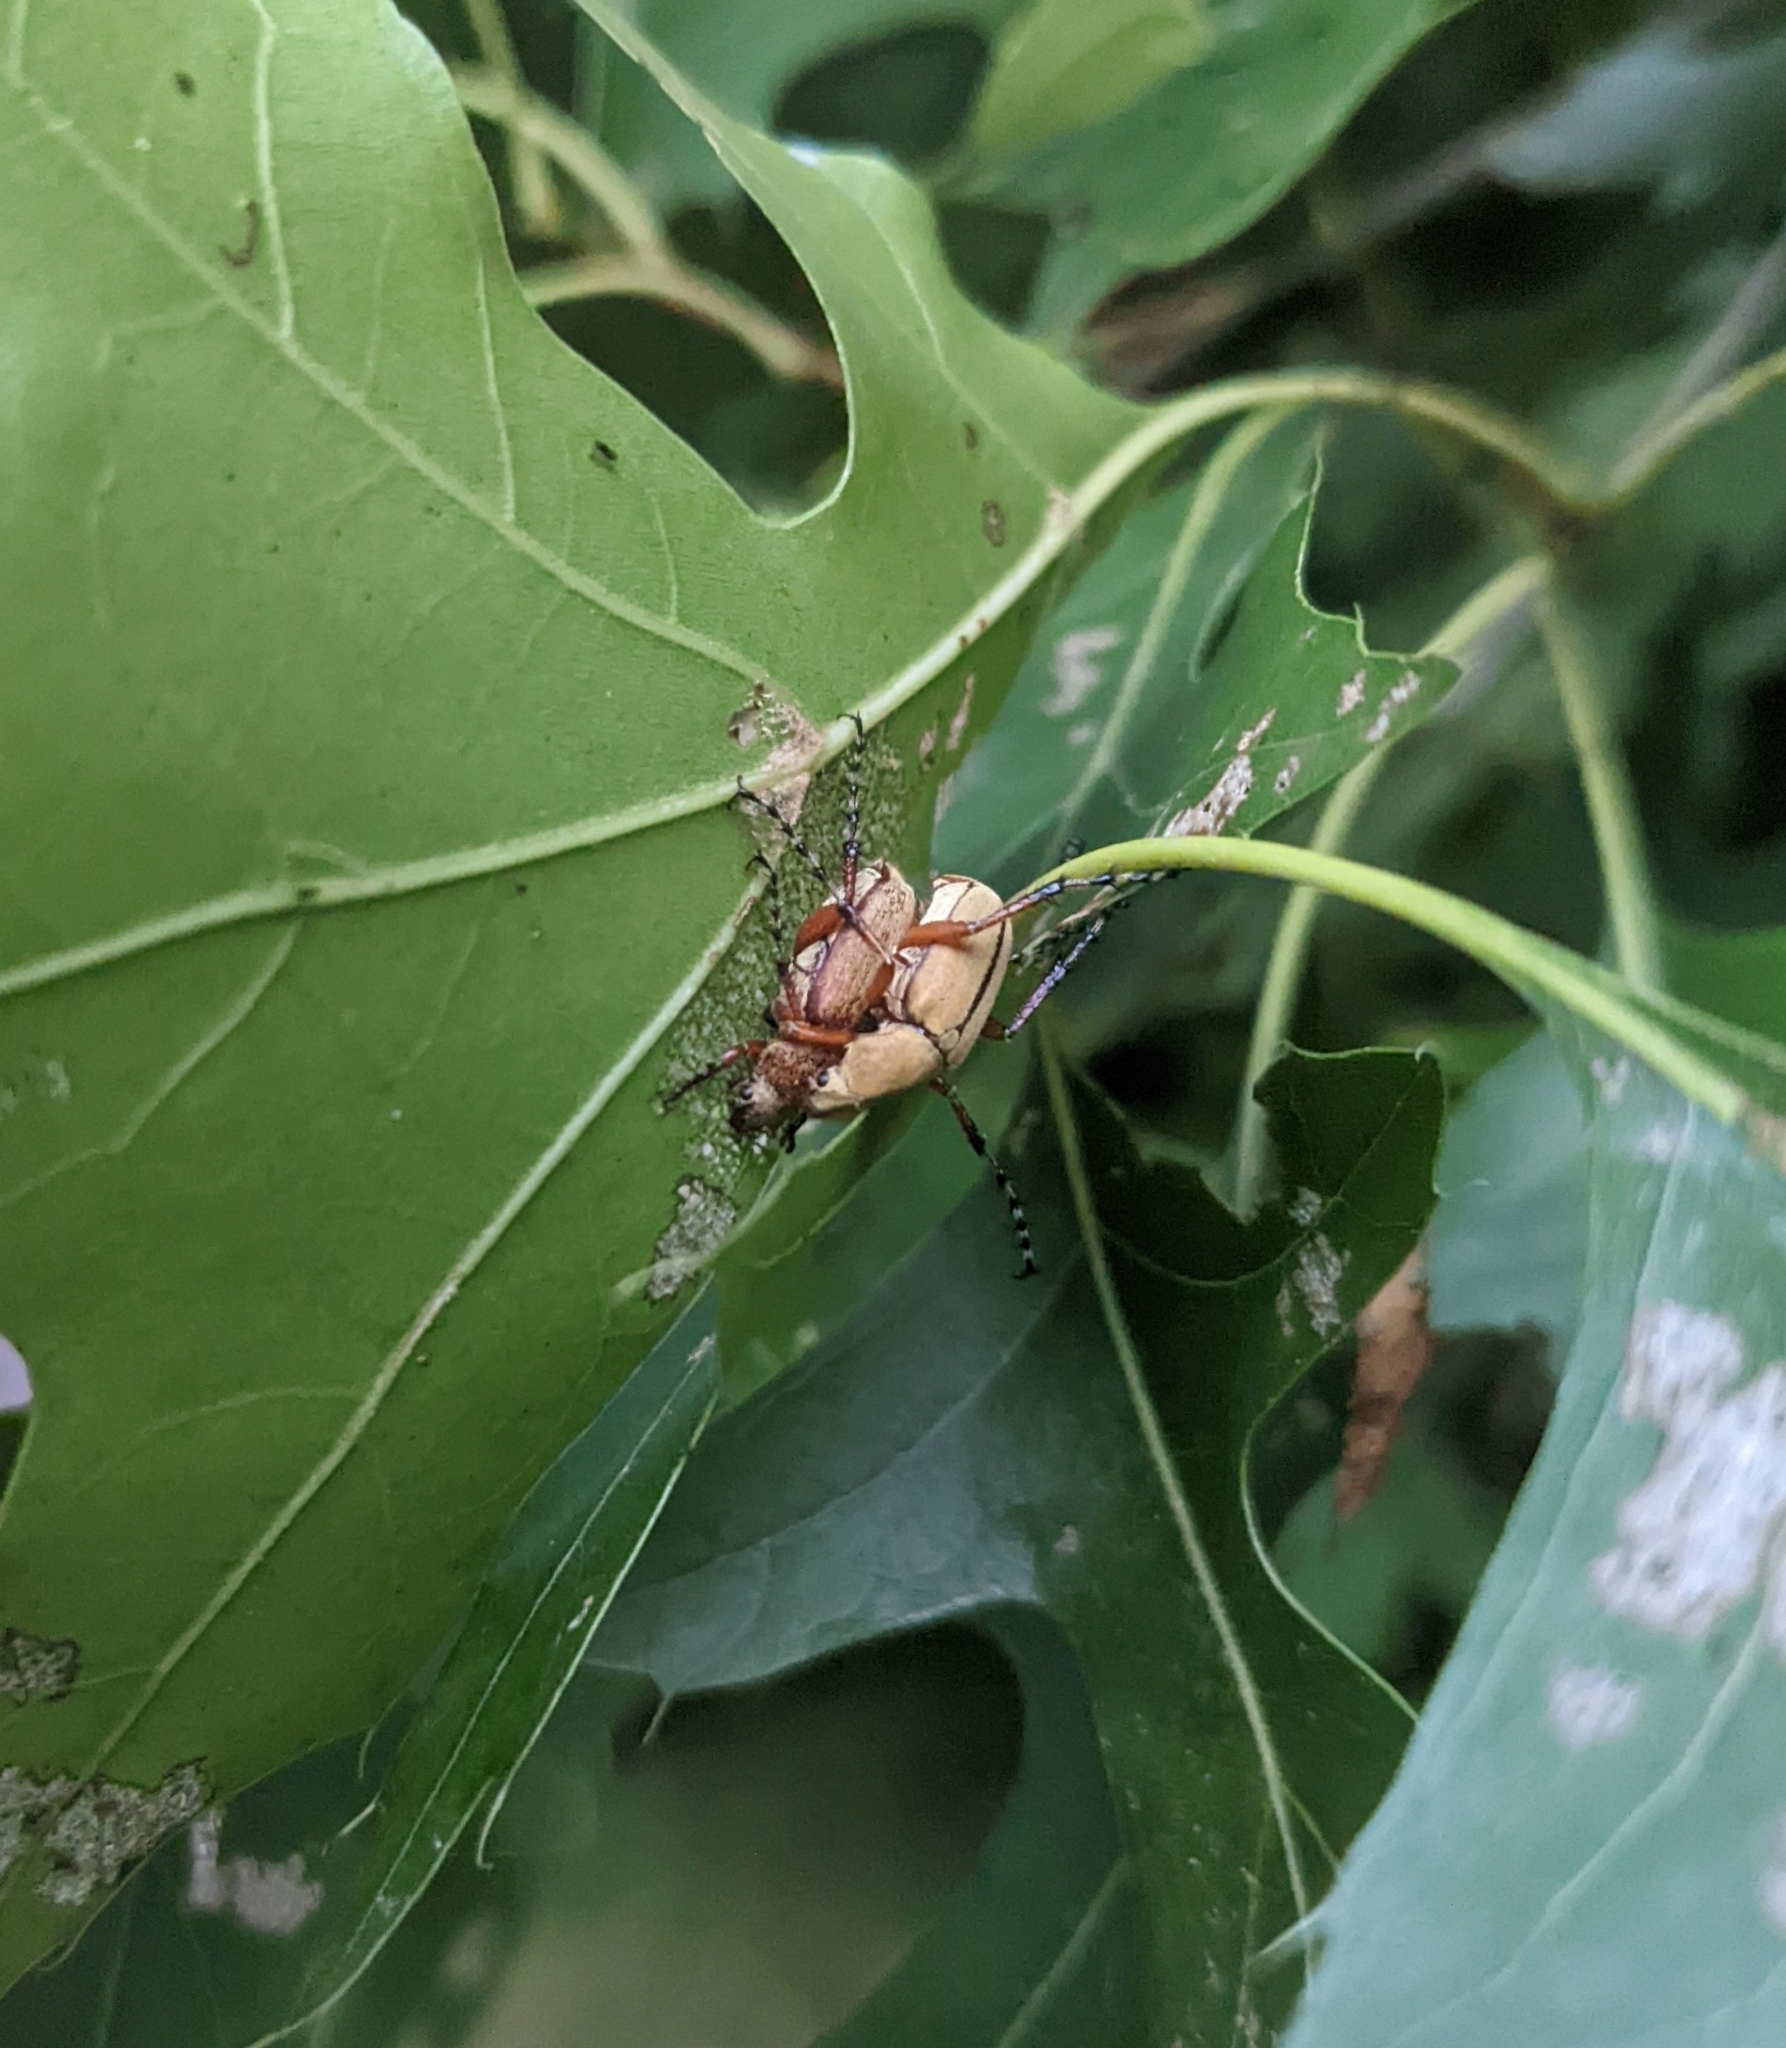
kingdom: Animalia
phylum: Arthropoda
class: Insecta
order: Coleoptera
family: Scarabaeidae
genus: Macrodactylus
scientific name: Macrodactylus subspinosus
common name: American rose chafer
